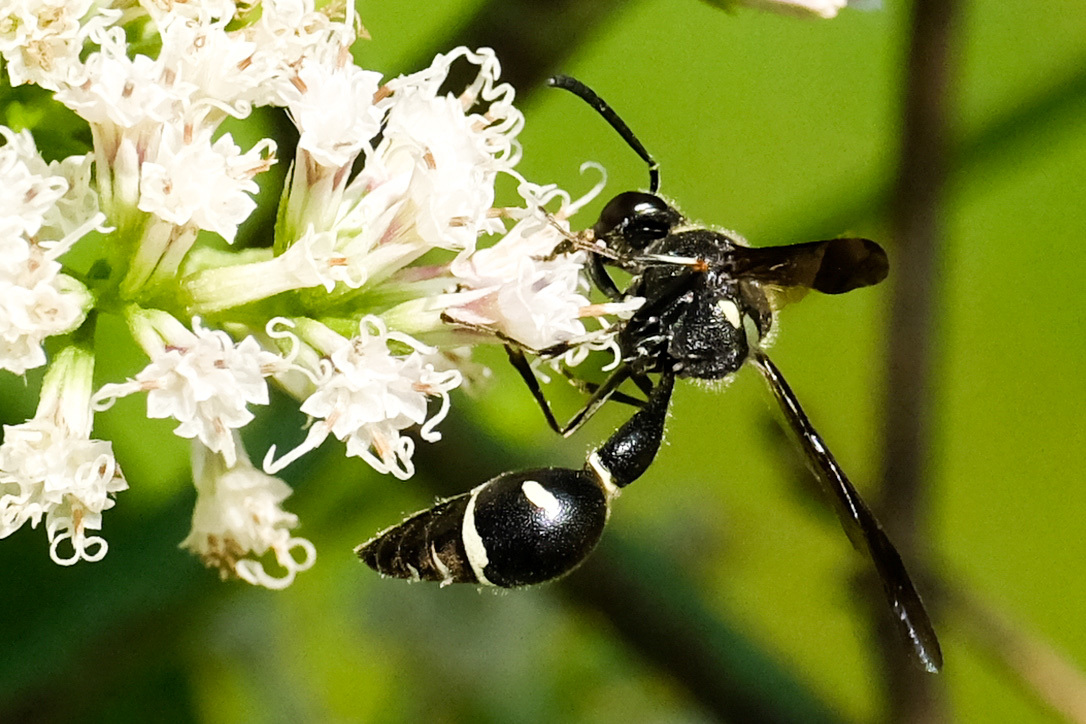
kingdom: Animalia
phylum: Arthropoda
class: Insecta
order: Hymenoptera
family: Vespidae
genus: Eumenes
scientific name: Eumenes fraternus
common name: Fraternal potter wasp
